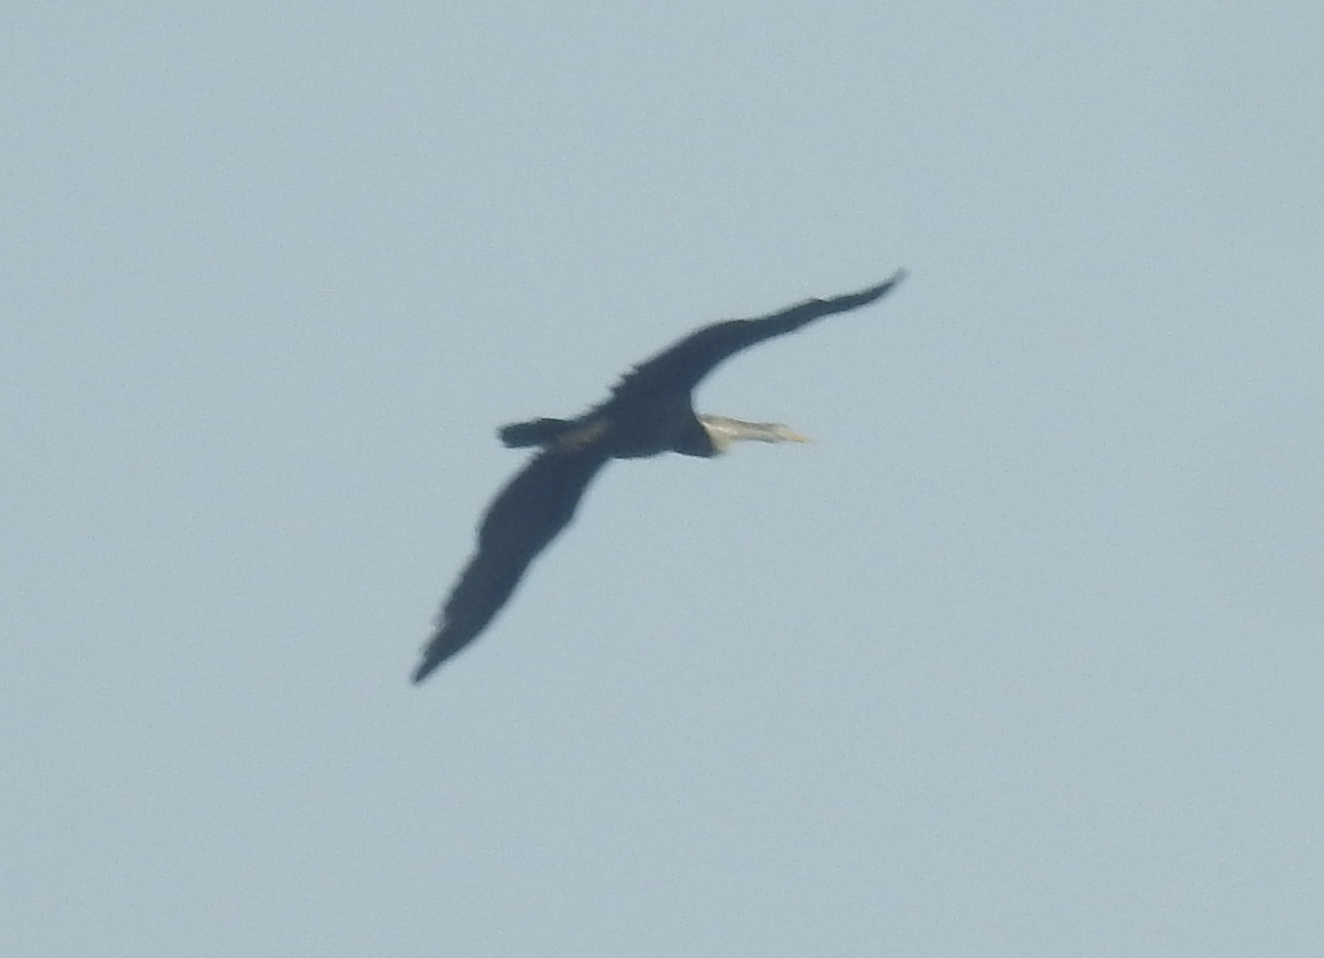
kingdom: Animalia
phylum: Chordata
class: Aves
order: Suliformes
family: Anhingidae
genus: Anhinga
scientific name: Anhinga melanogaster
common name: Oriental darter
